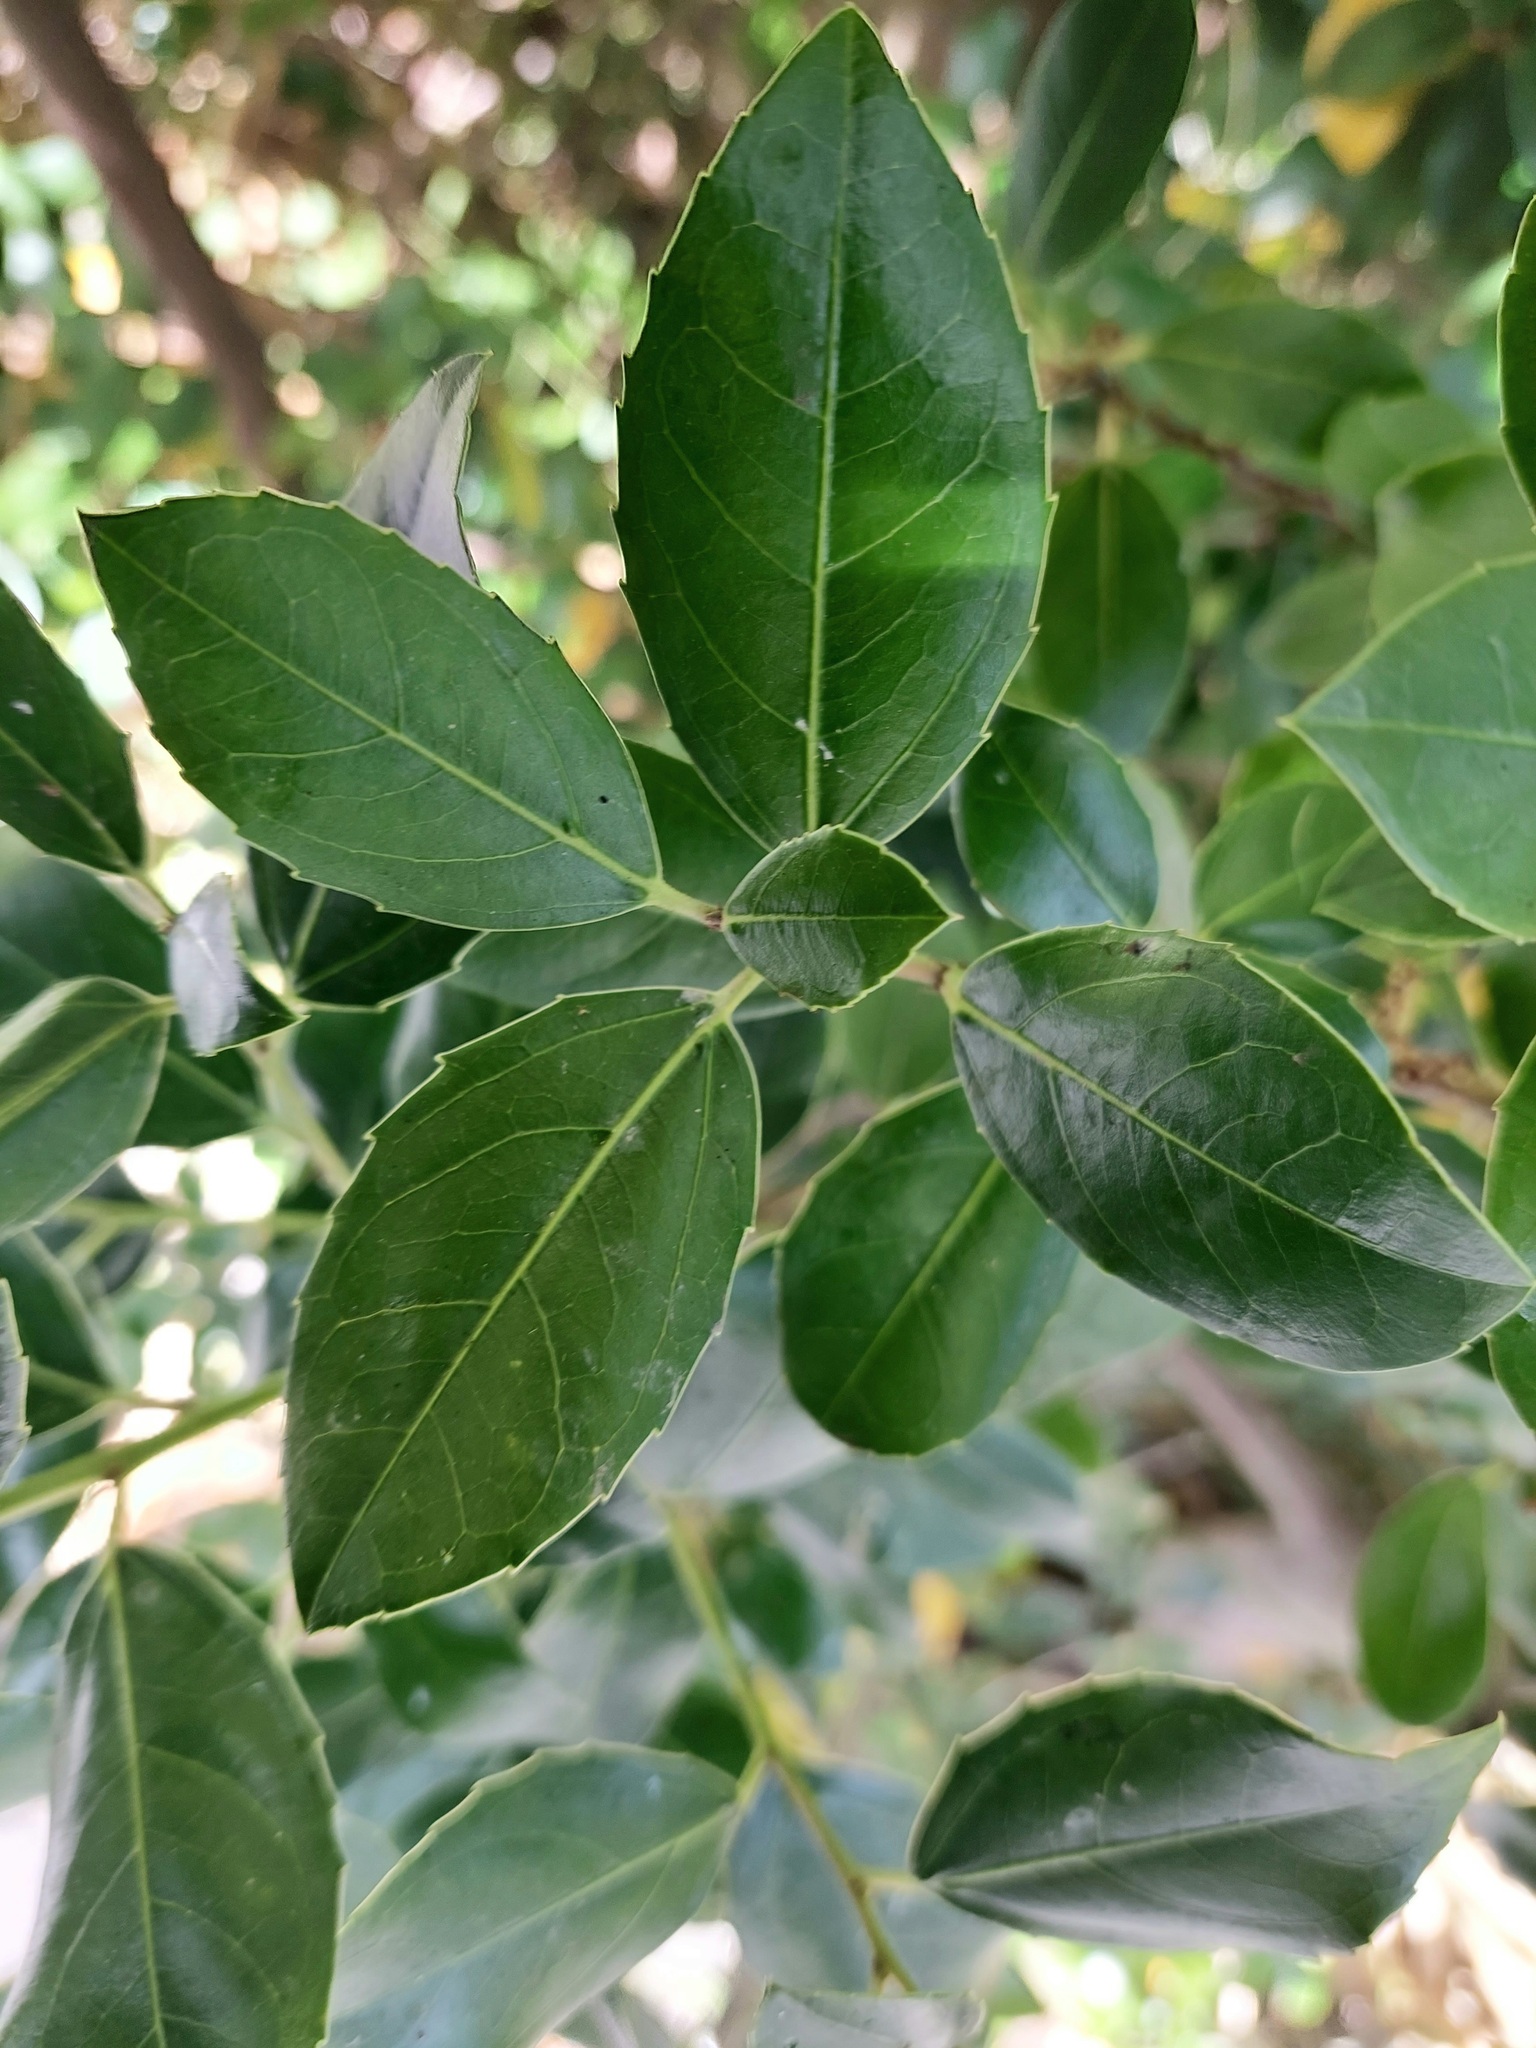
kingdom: Plantae
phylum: Tracheophyta
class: Magnoliopsida
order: Rosales
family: Rhamnaceae
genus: Rhamnus
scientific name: Rhamnus alaternus
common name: Mediterranean buckthorn
